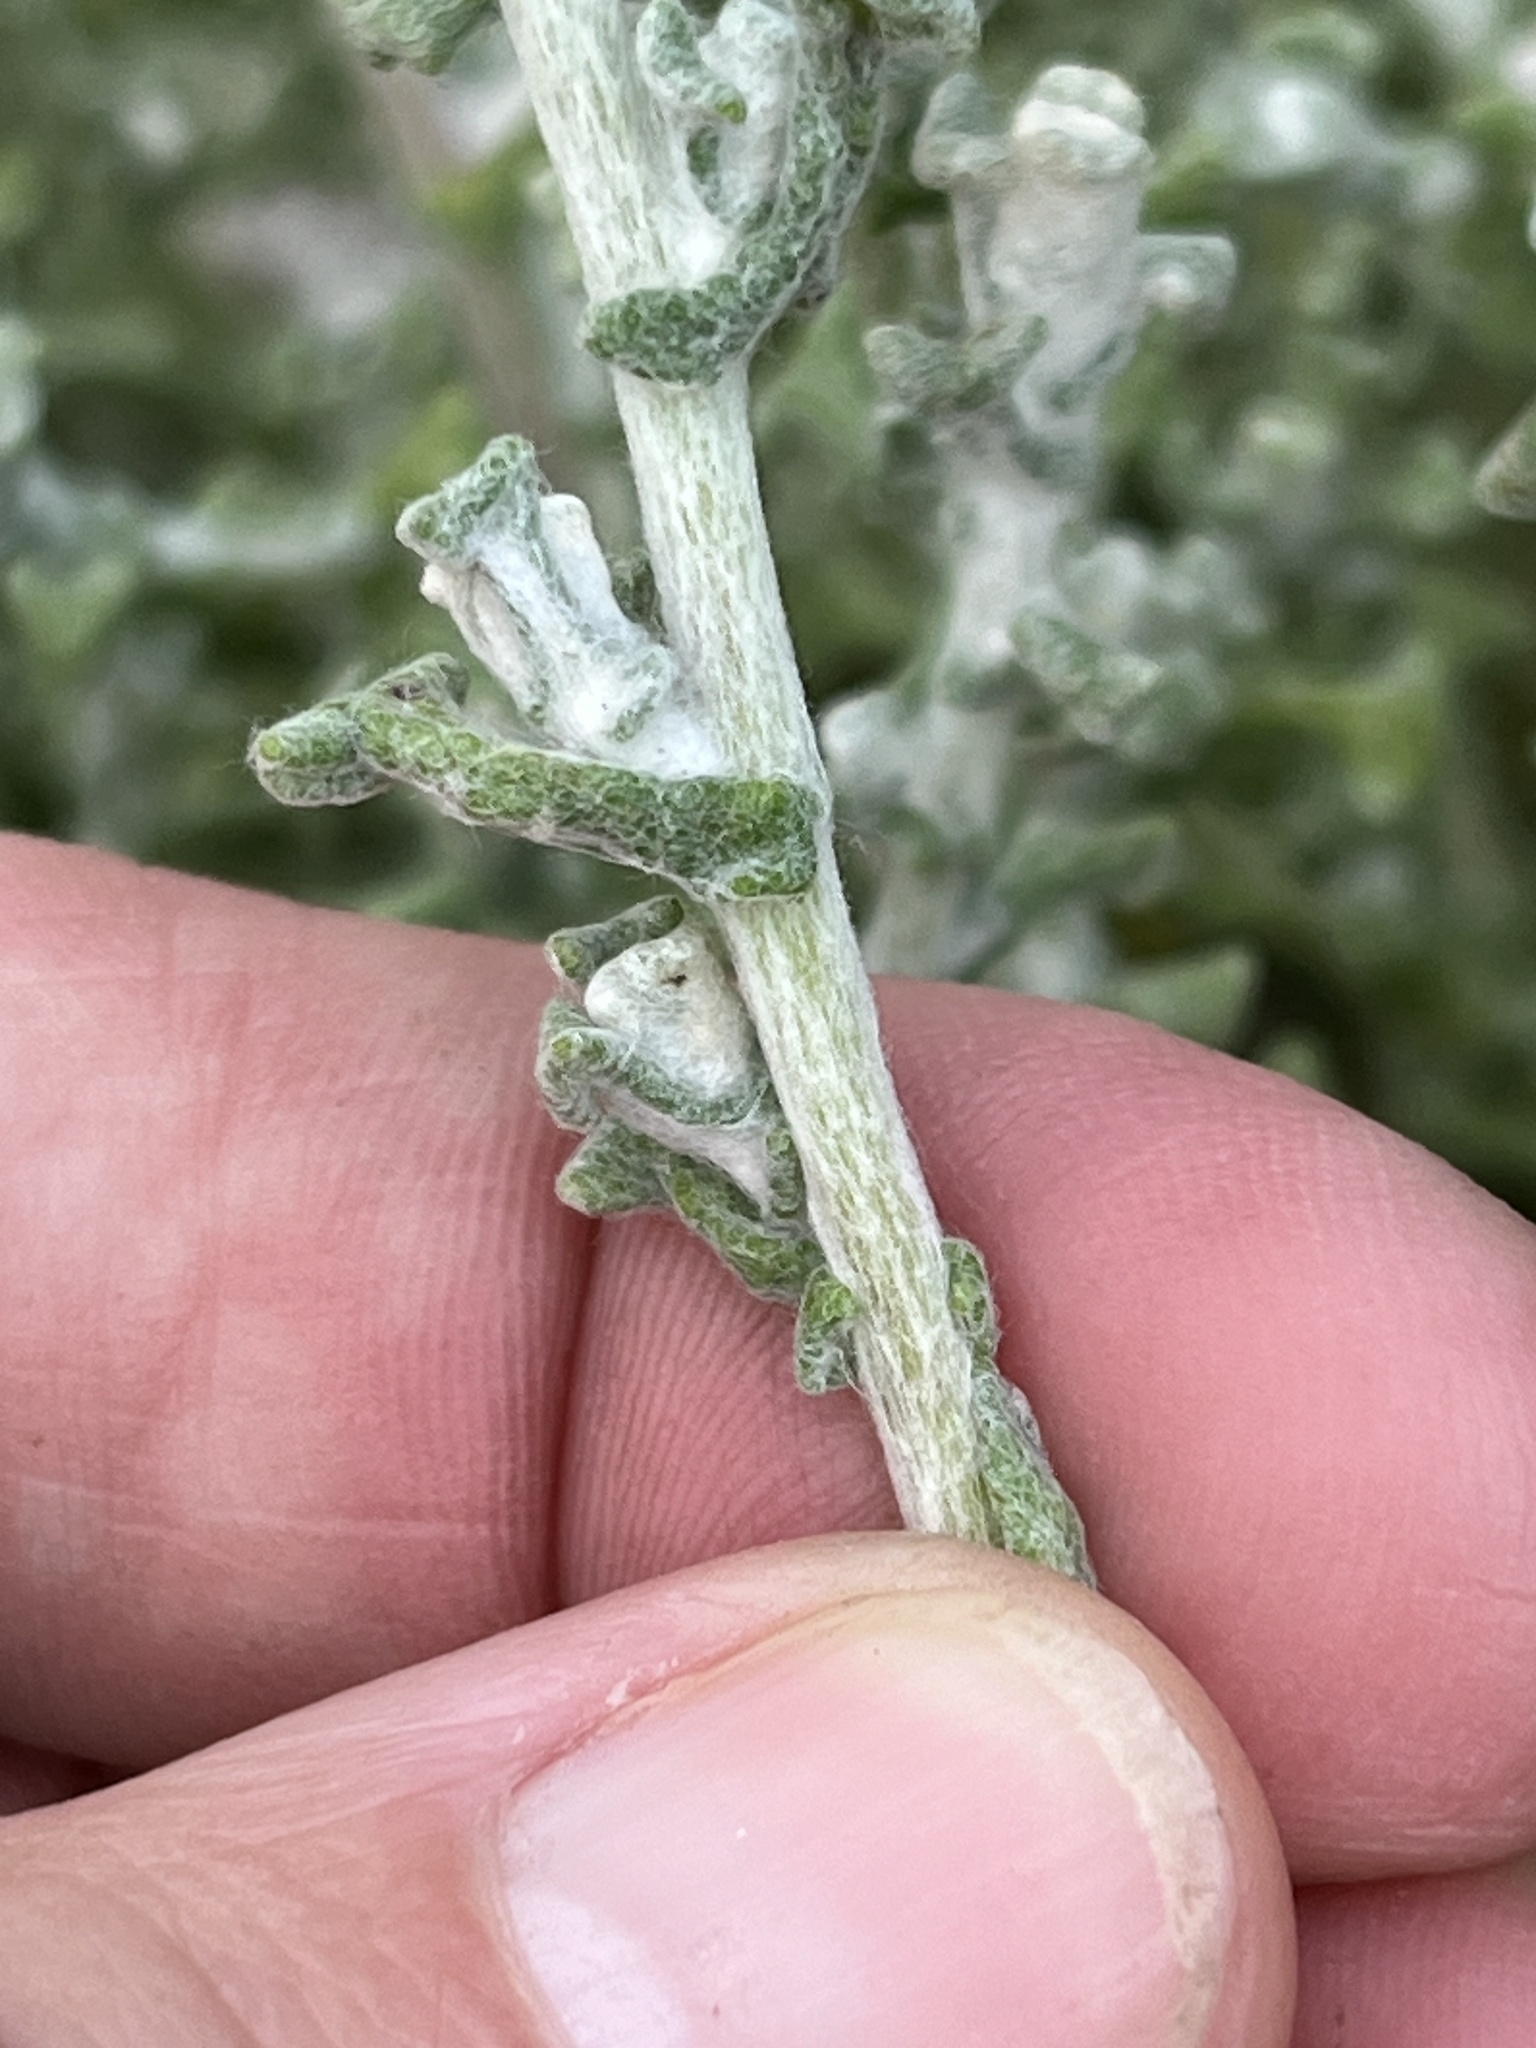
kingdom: Plantae
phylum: Tracheophyta
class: Magnoliopsida
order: Asterales
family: Asteraceae
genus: Helichrysum
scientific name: Helichrysum patulum
